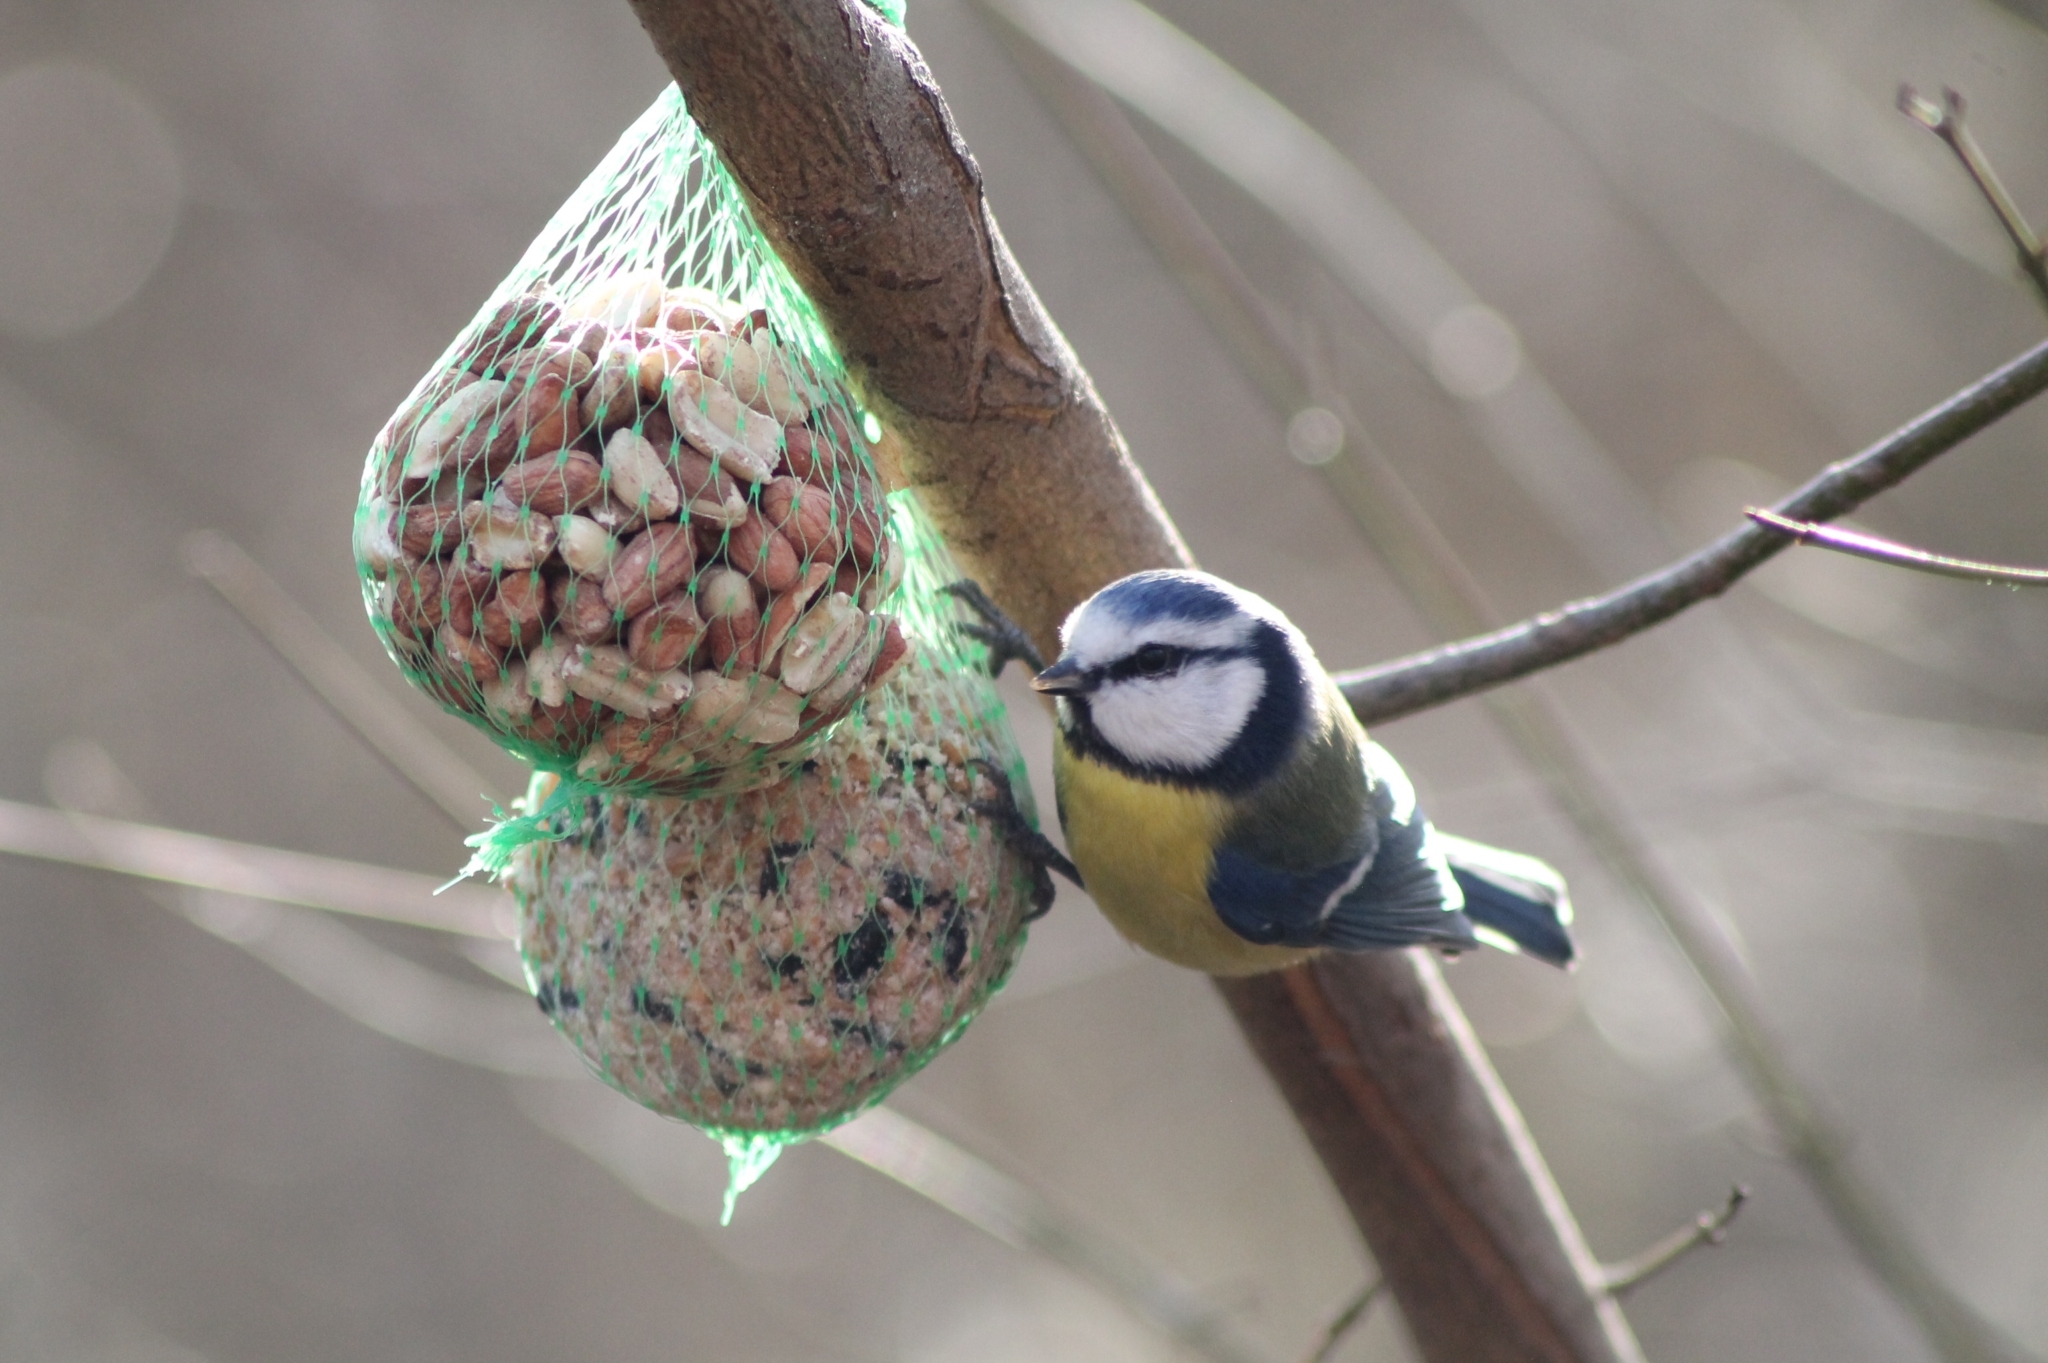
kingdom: Animalia
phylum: Chordata
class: Aves
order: Passeriformes
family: Paridae
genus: Cyanistes
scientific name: Cyanistes caeruleus
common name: Eurasian blue tit
